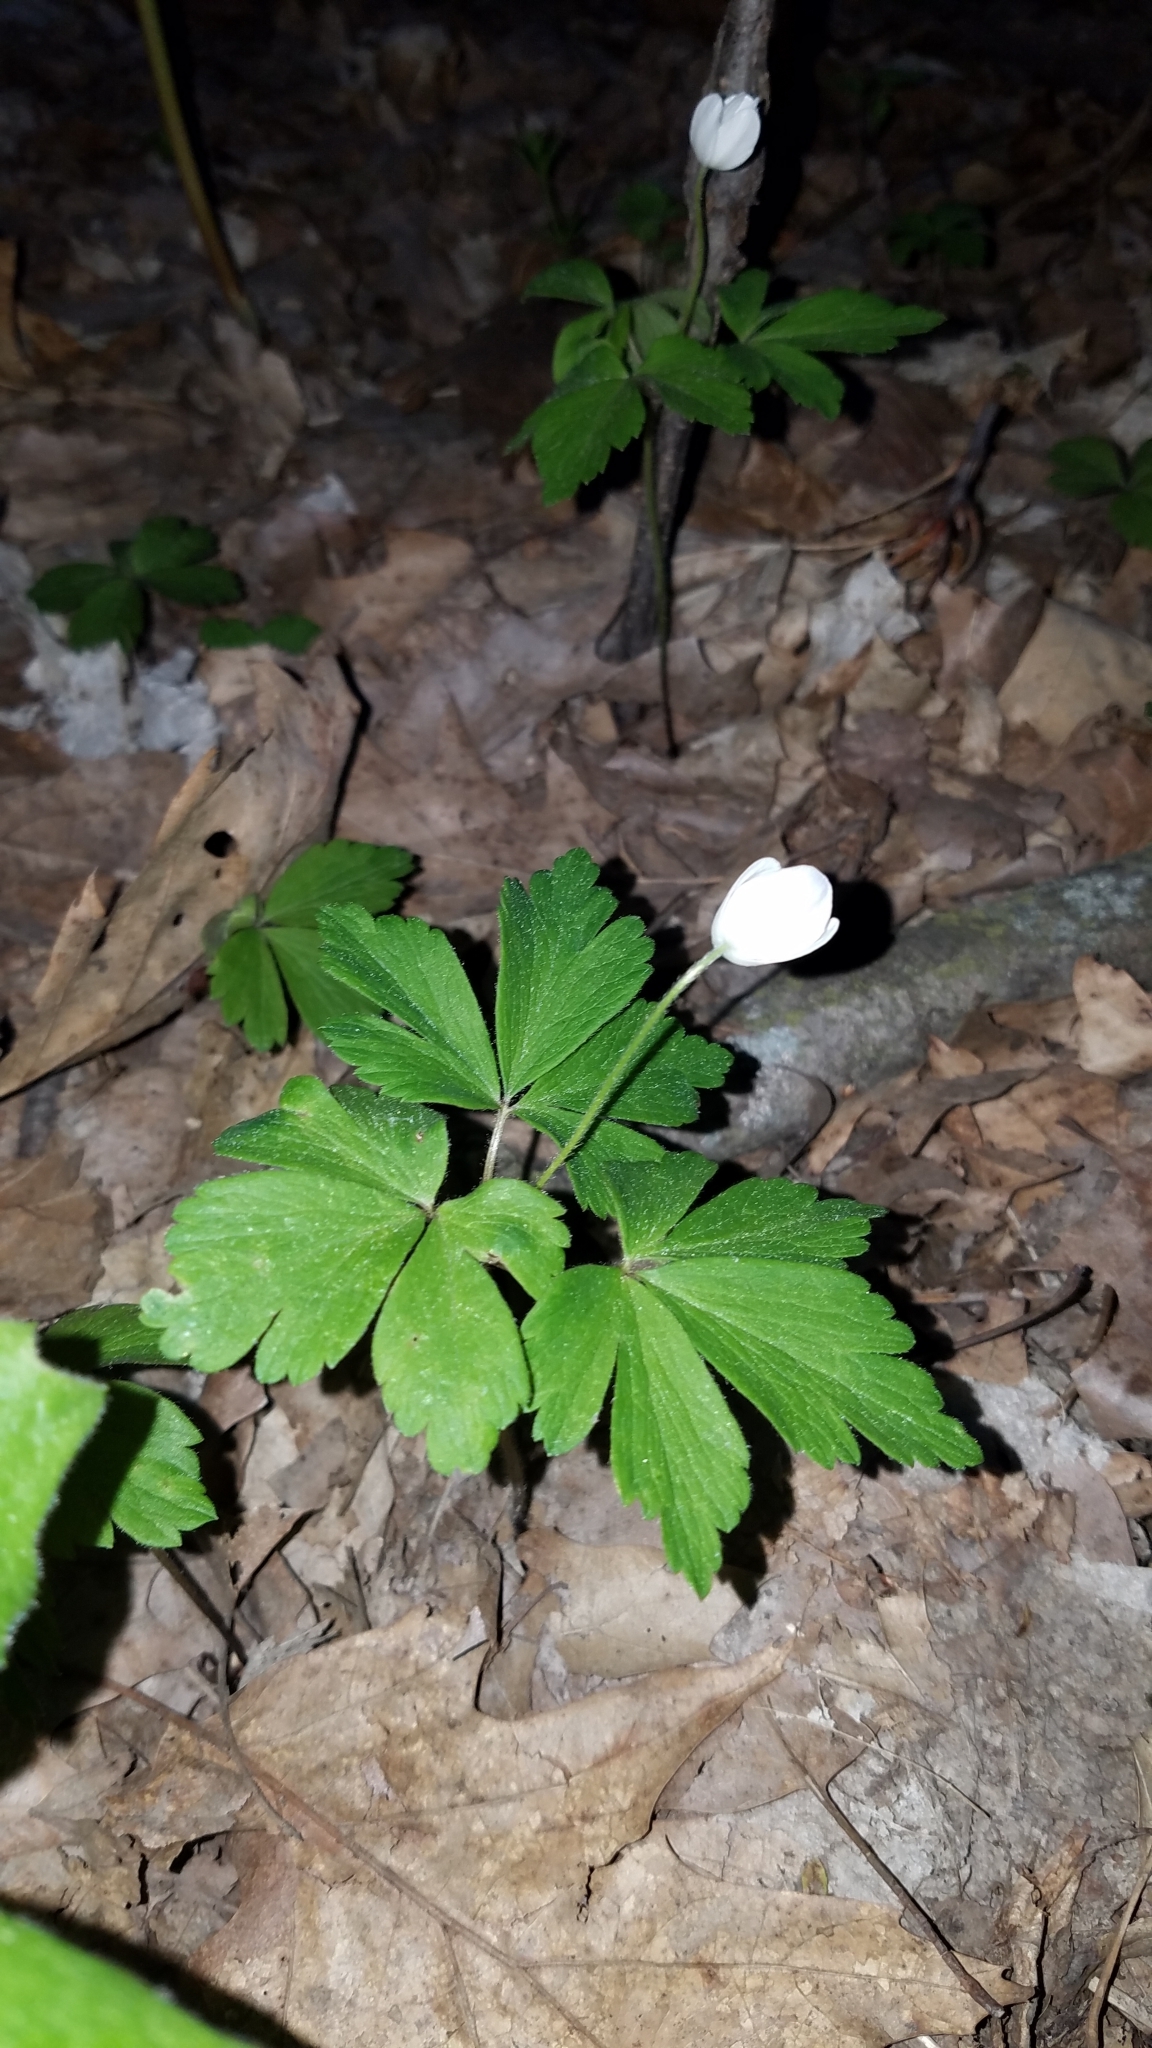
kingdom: Plantae
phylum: Tracheophyta
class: Magnoliopsida
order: Ranunculales
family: Ranunculaceae
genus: Anemone
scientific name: Anemone quinquefolia
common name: Wood anemone
